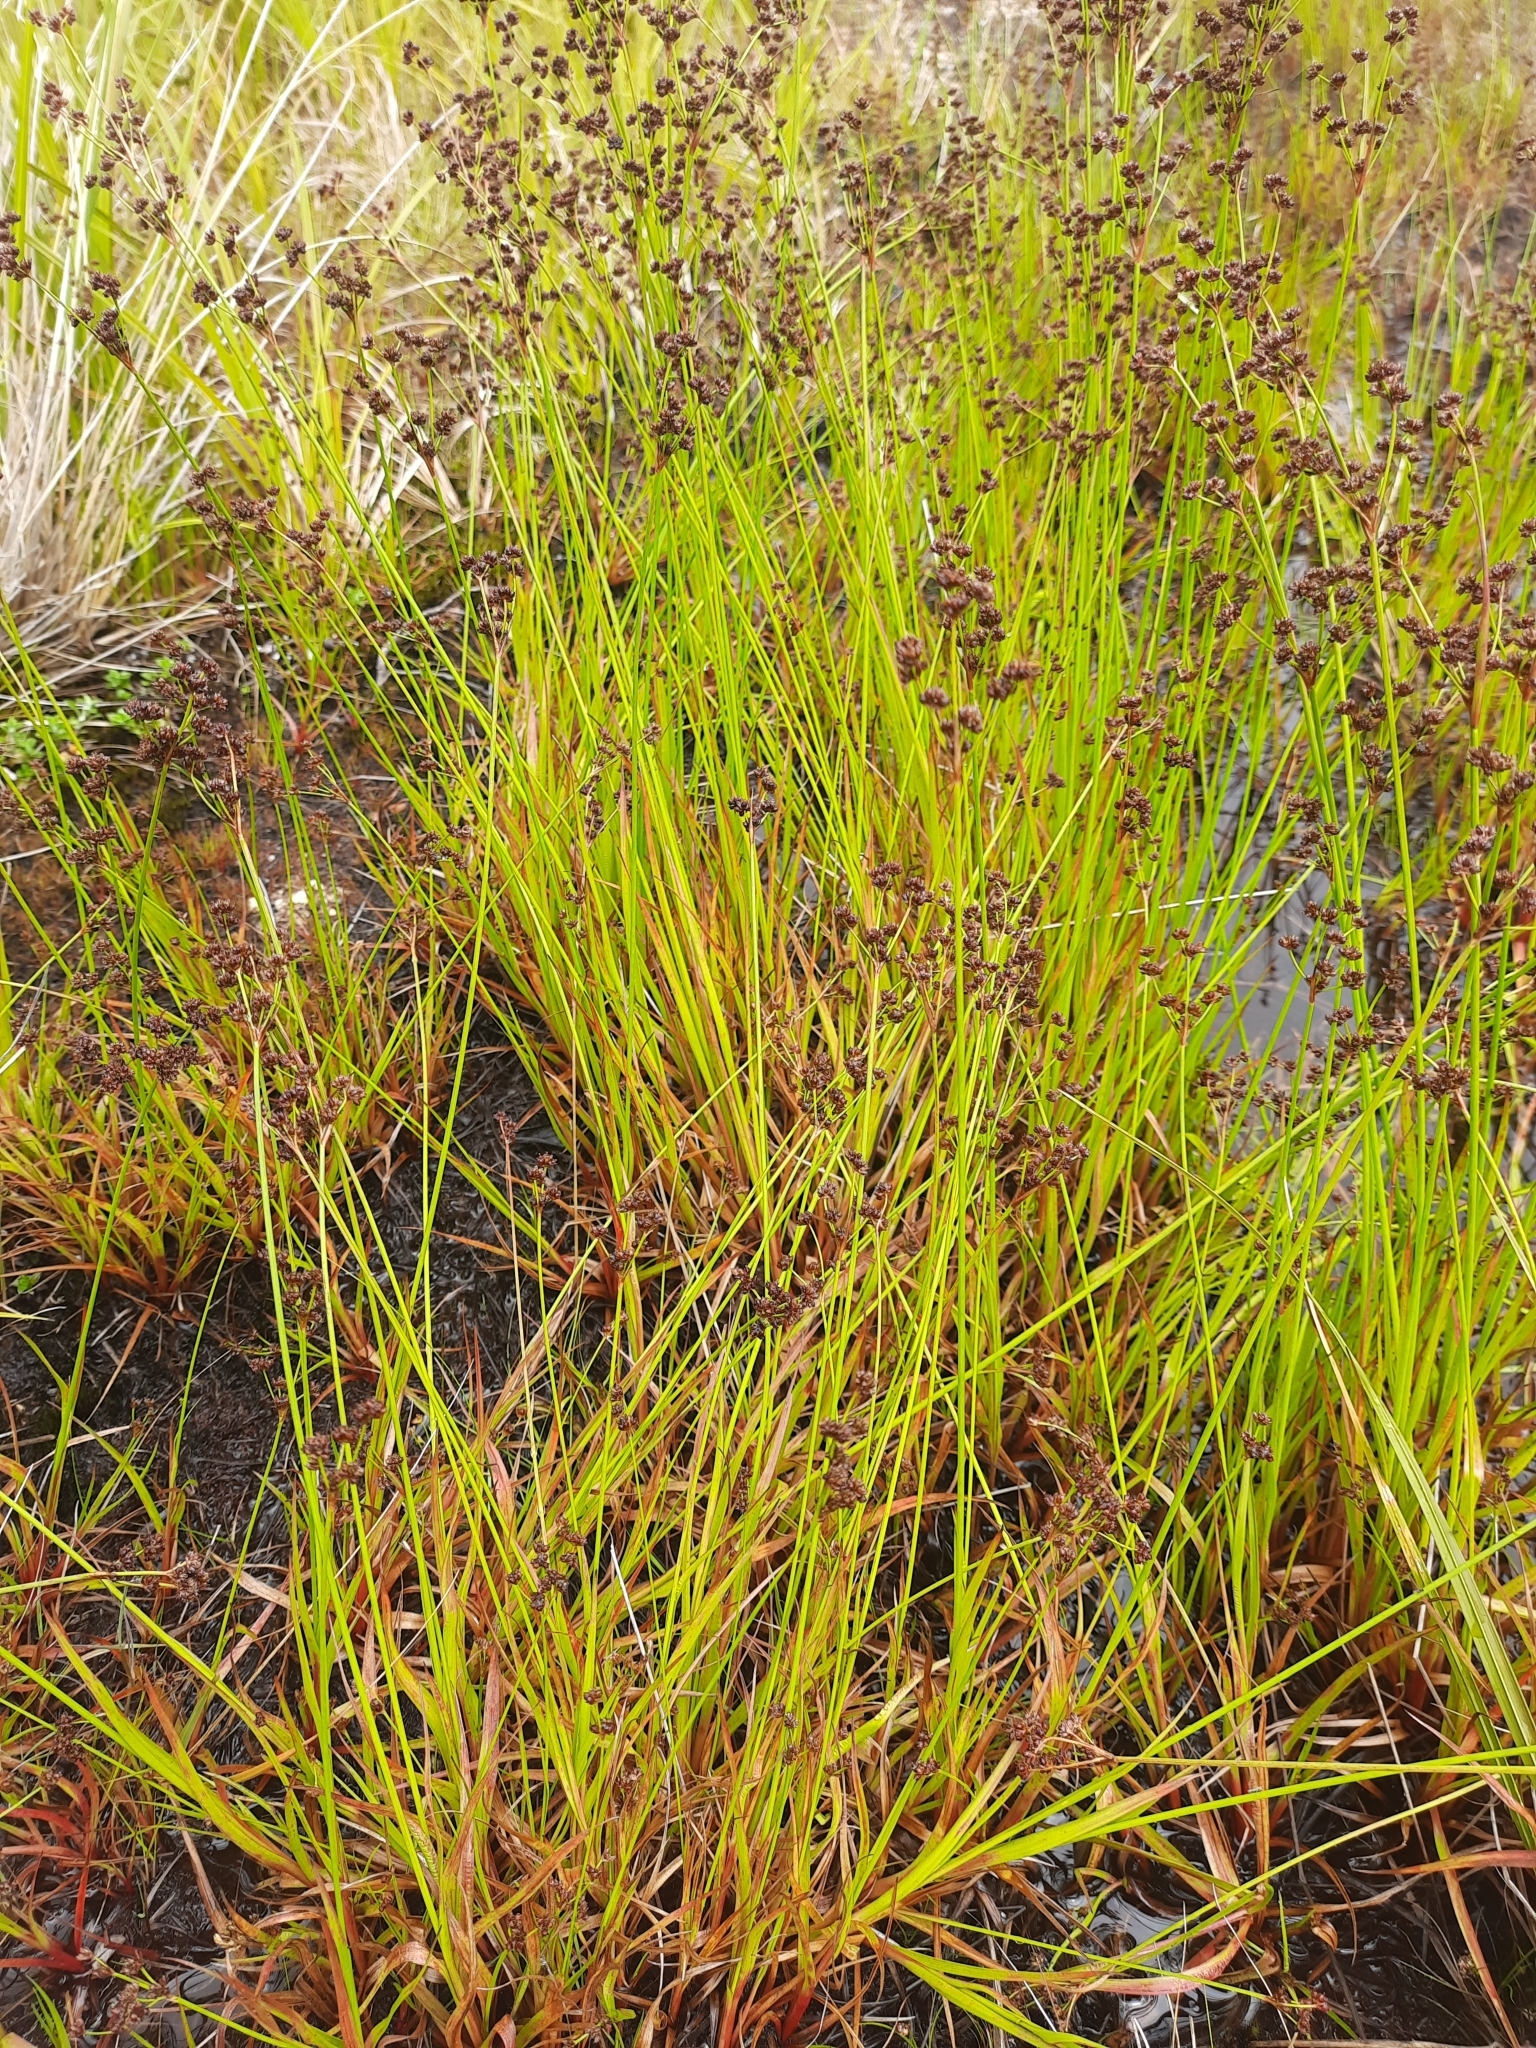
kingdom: Plantae
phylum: Tracheophyta
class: Liliopsida
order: Poales
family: Juncaceae
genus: Juncus
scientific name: Juncus planifolius
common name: Broadleaf rush
